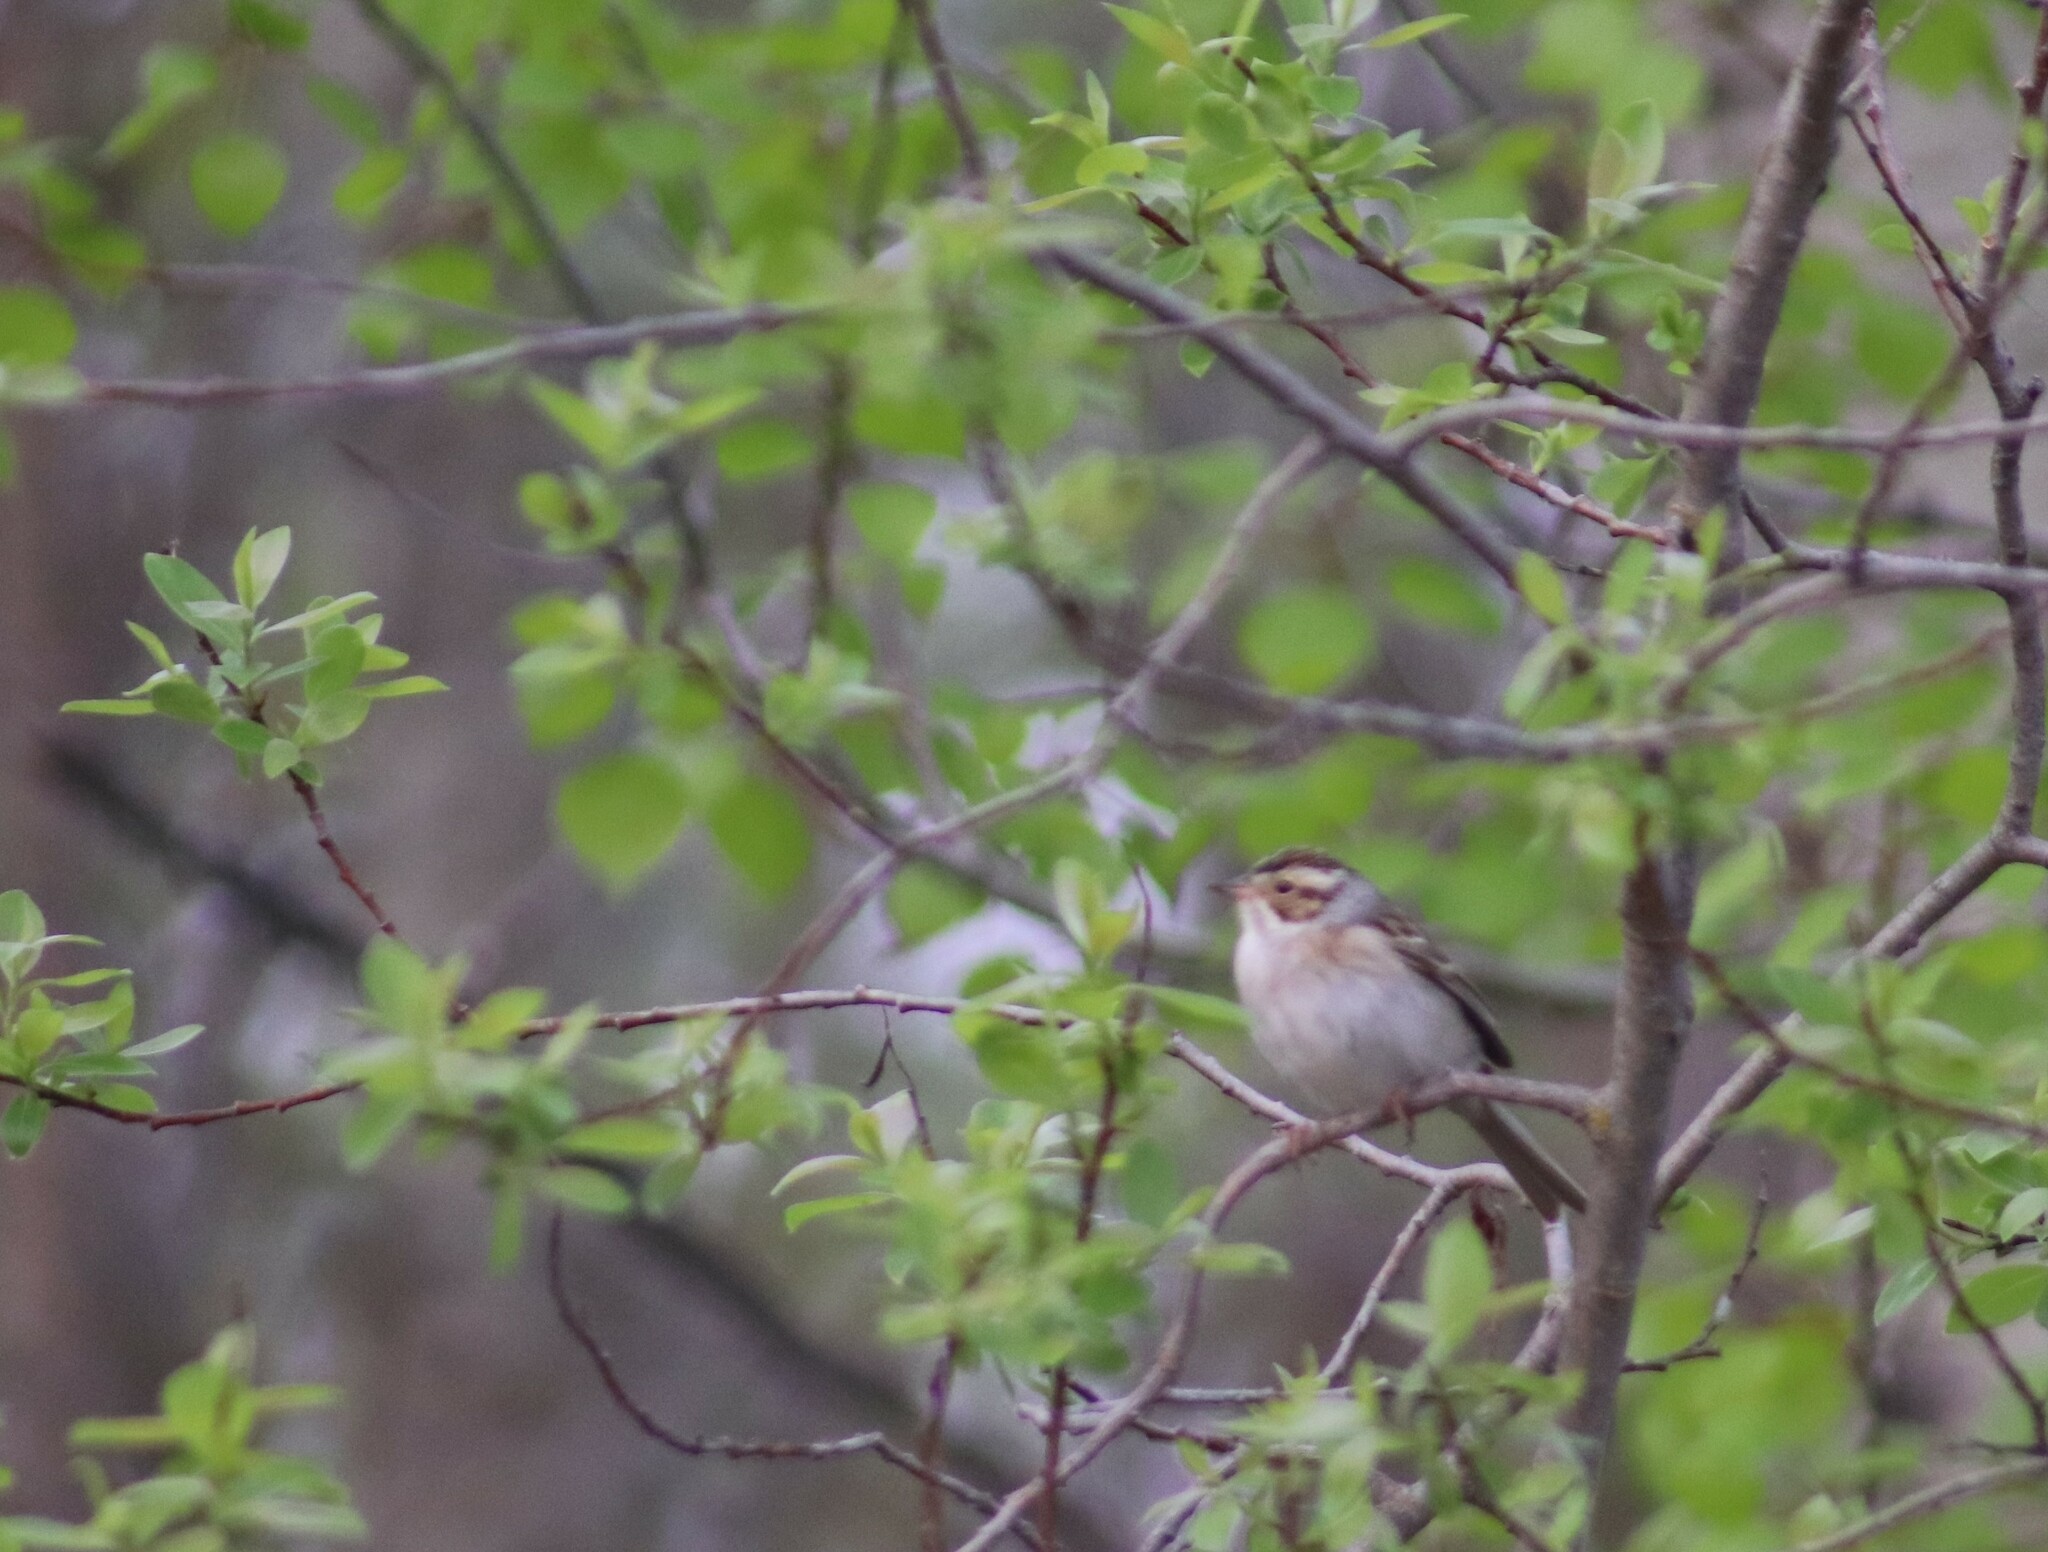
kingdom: Animalia
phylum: Chordata
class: Aves
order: Passeriformes
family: Passerellidae
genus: Spizella
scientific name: Spizella pallida
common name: Clay-colored sparrow
